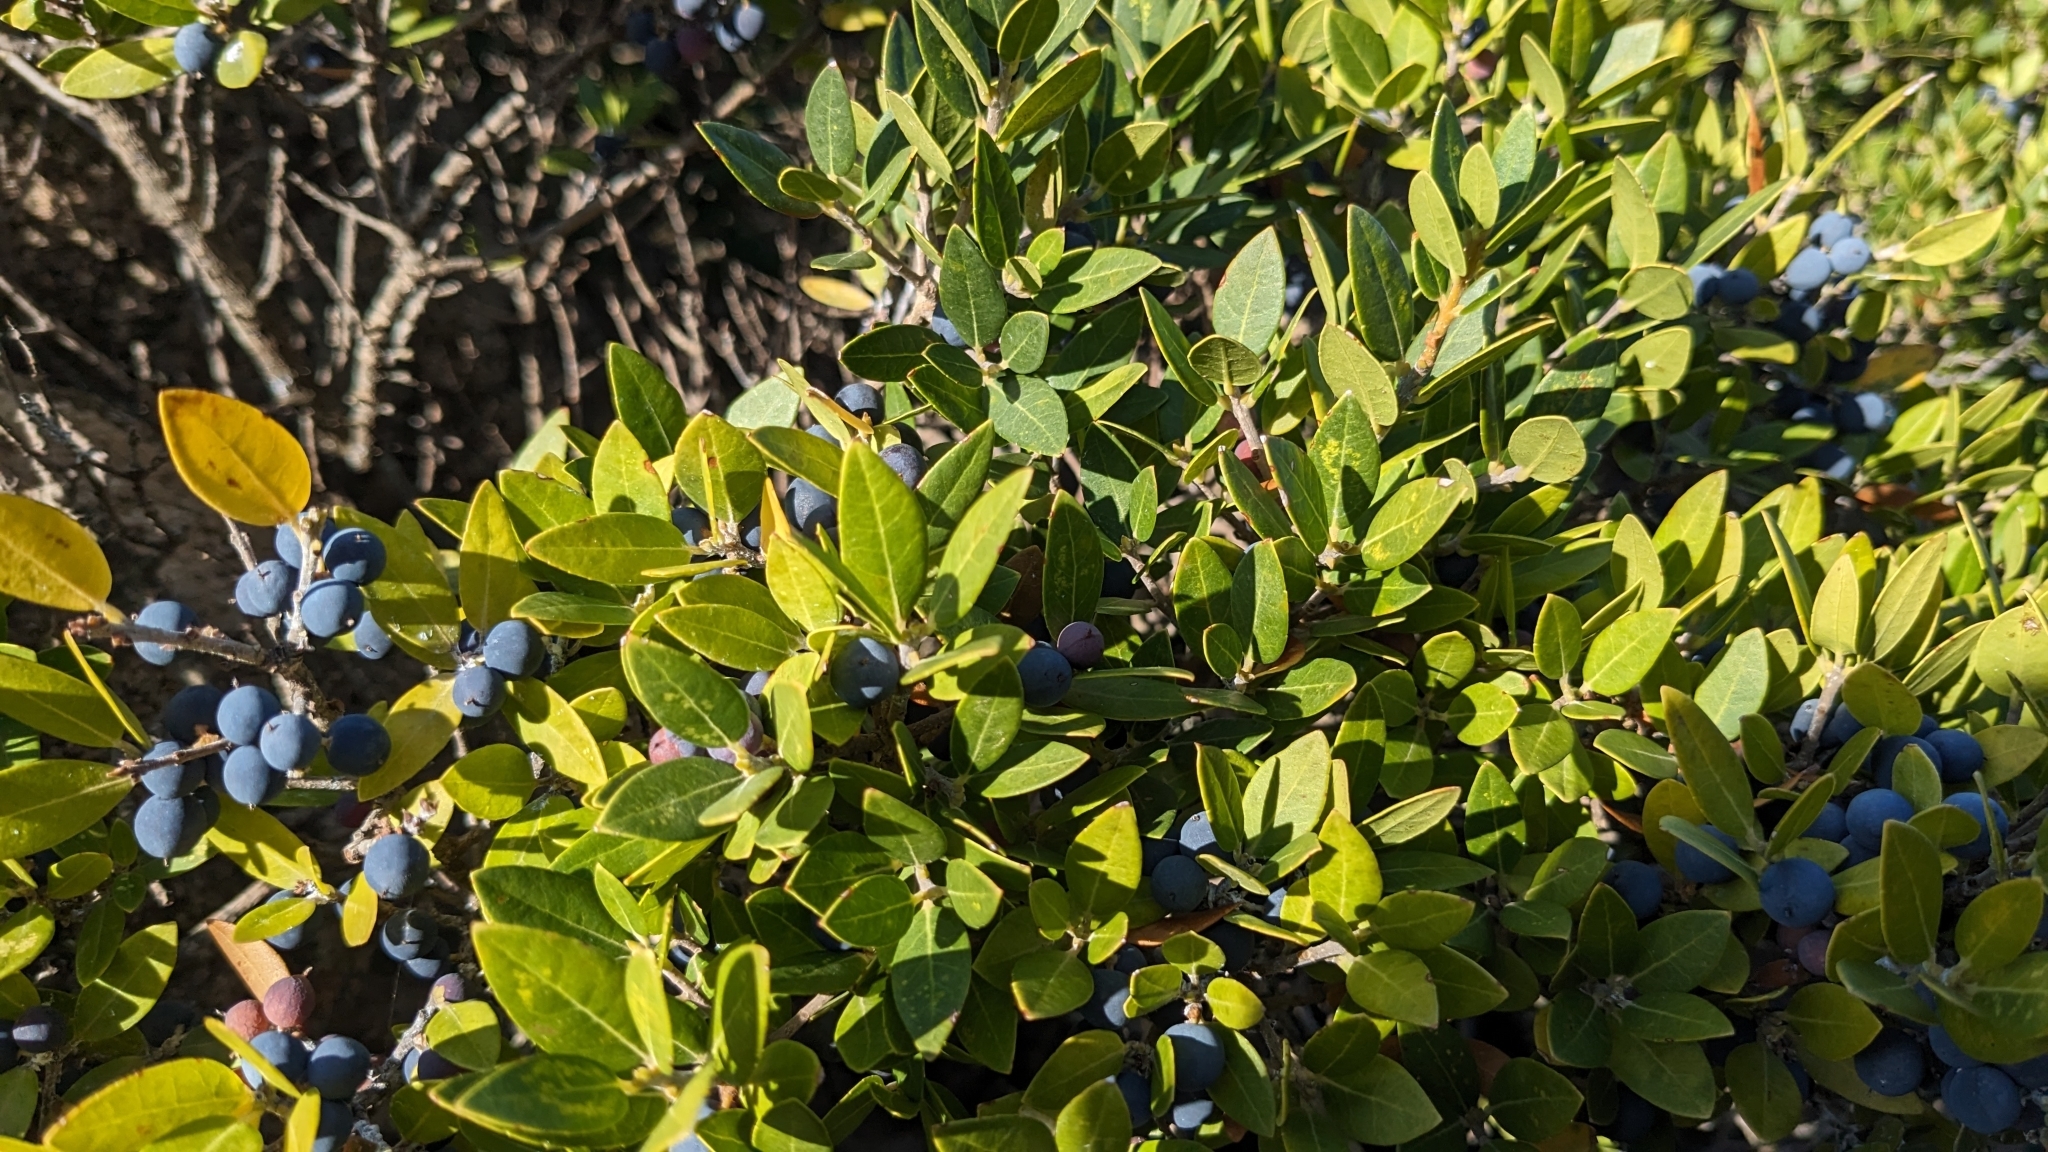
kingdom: Plantae
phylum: Tracheophyta
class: Magnoliopsida
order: Lamiales
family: Oleaceae
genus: Phillyrea
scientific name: Phillyrea latifolia
